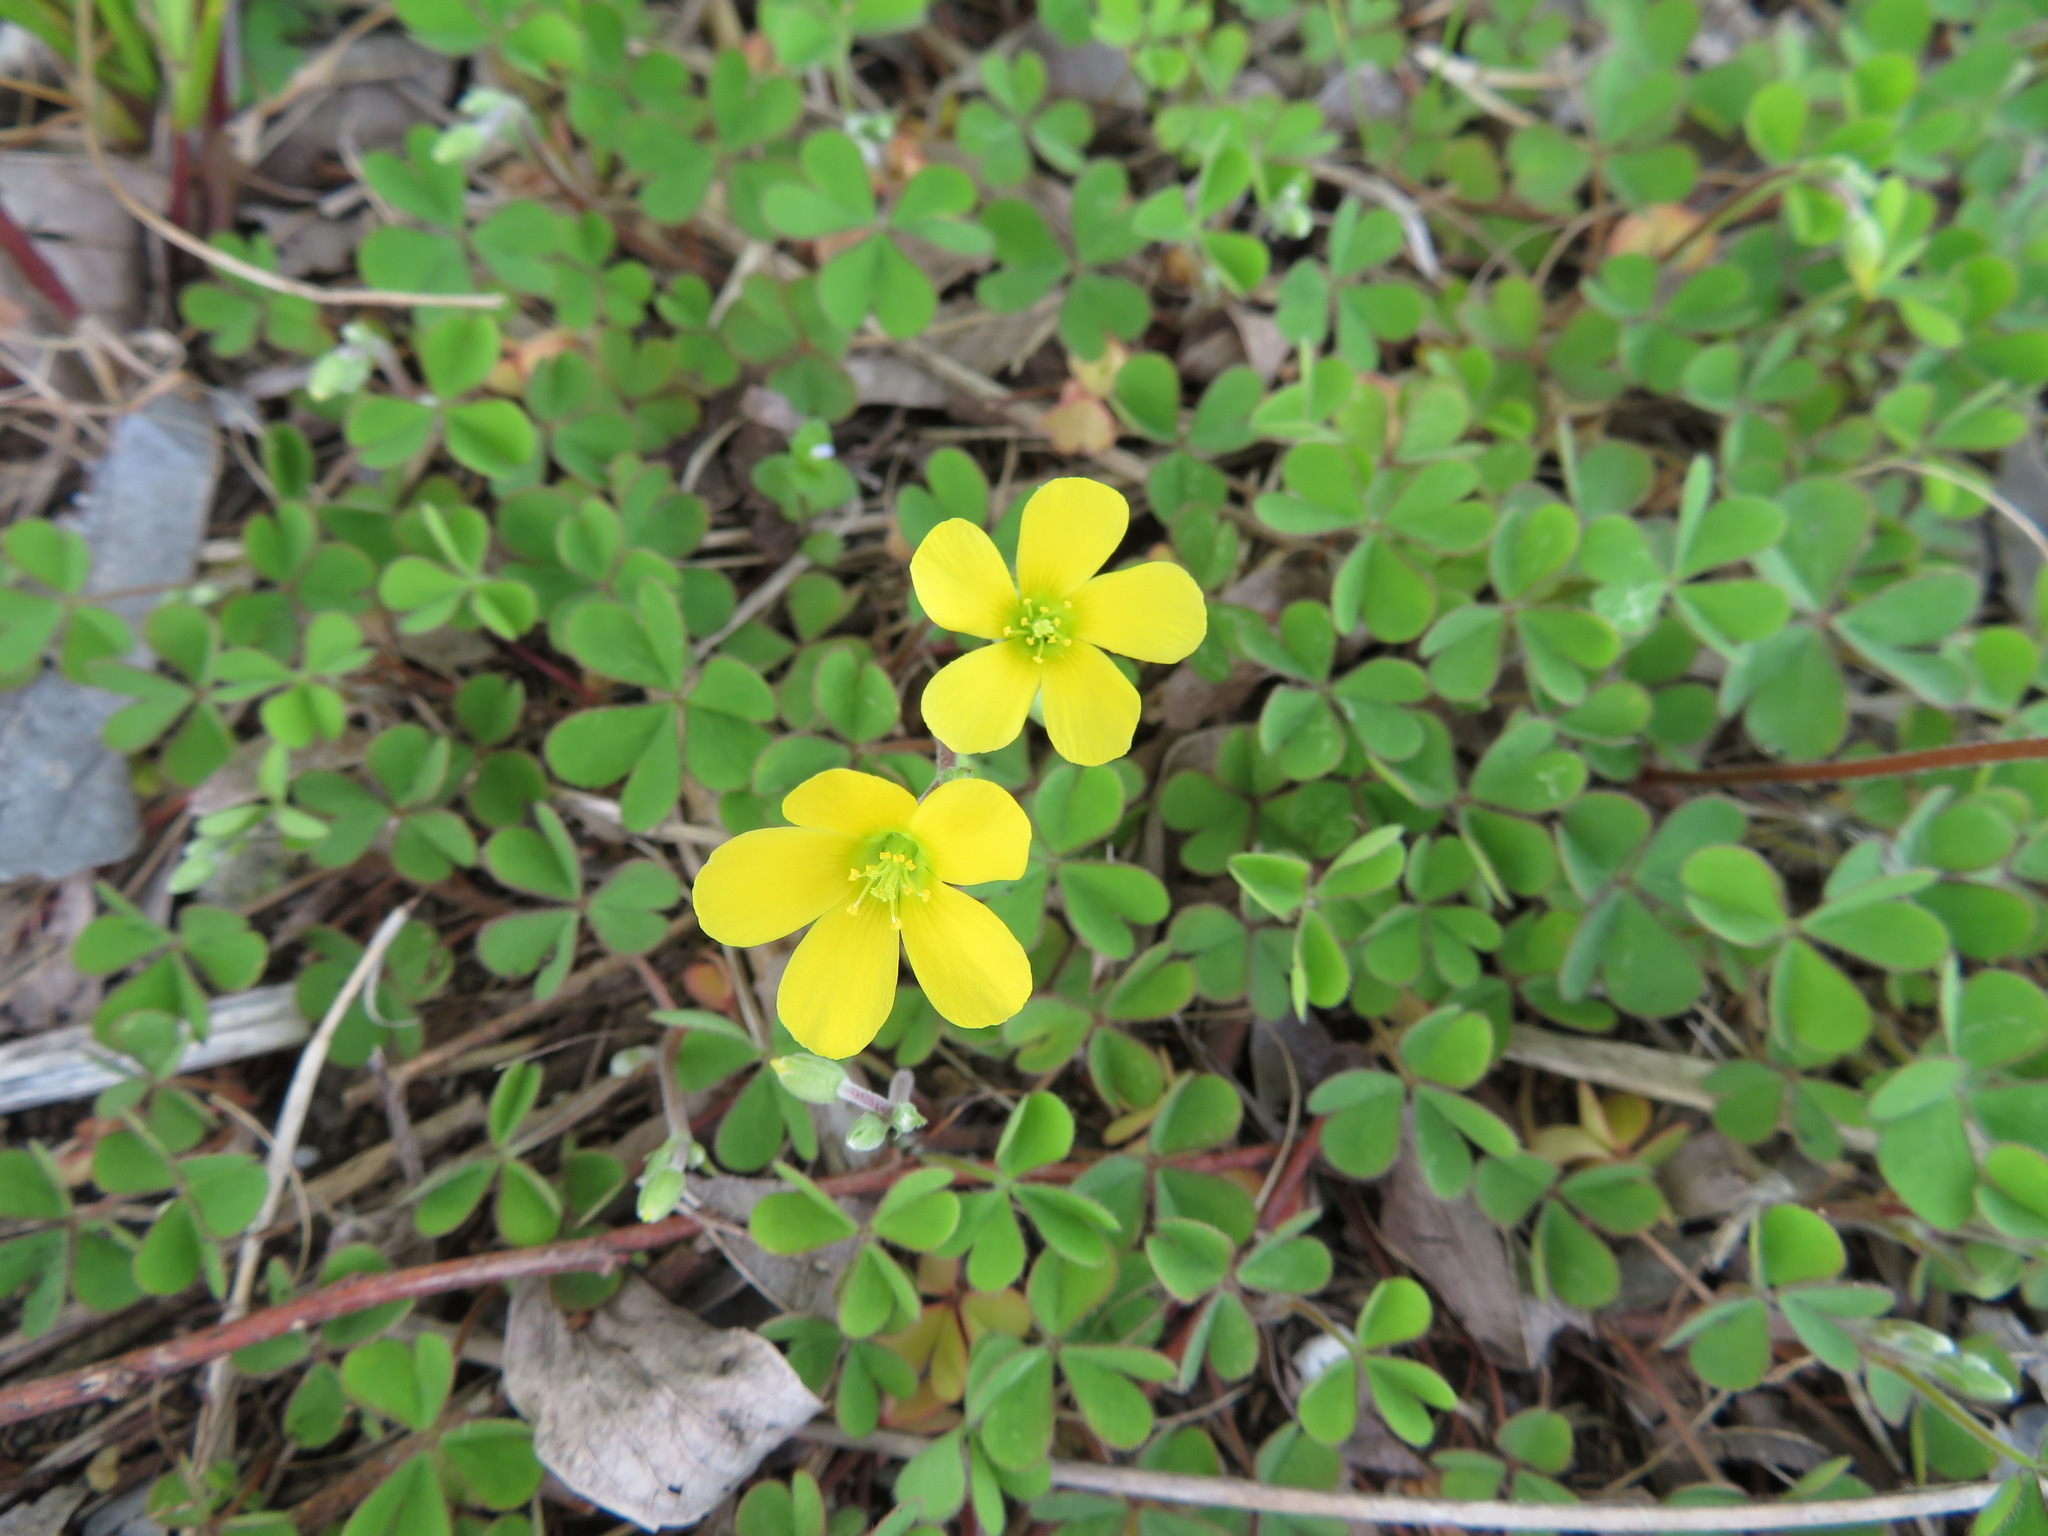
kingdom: Plantae
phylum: Tracheophyta
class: Magnoliopsida
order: Oxalidales
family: Oxalidaceae
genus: Oxalis
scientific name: Oxalis corniculata
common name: Procumbent yellow-sorrel
